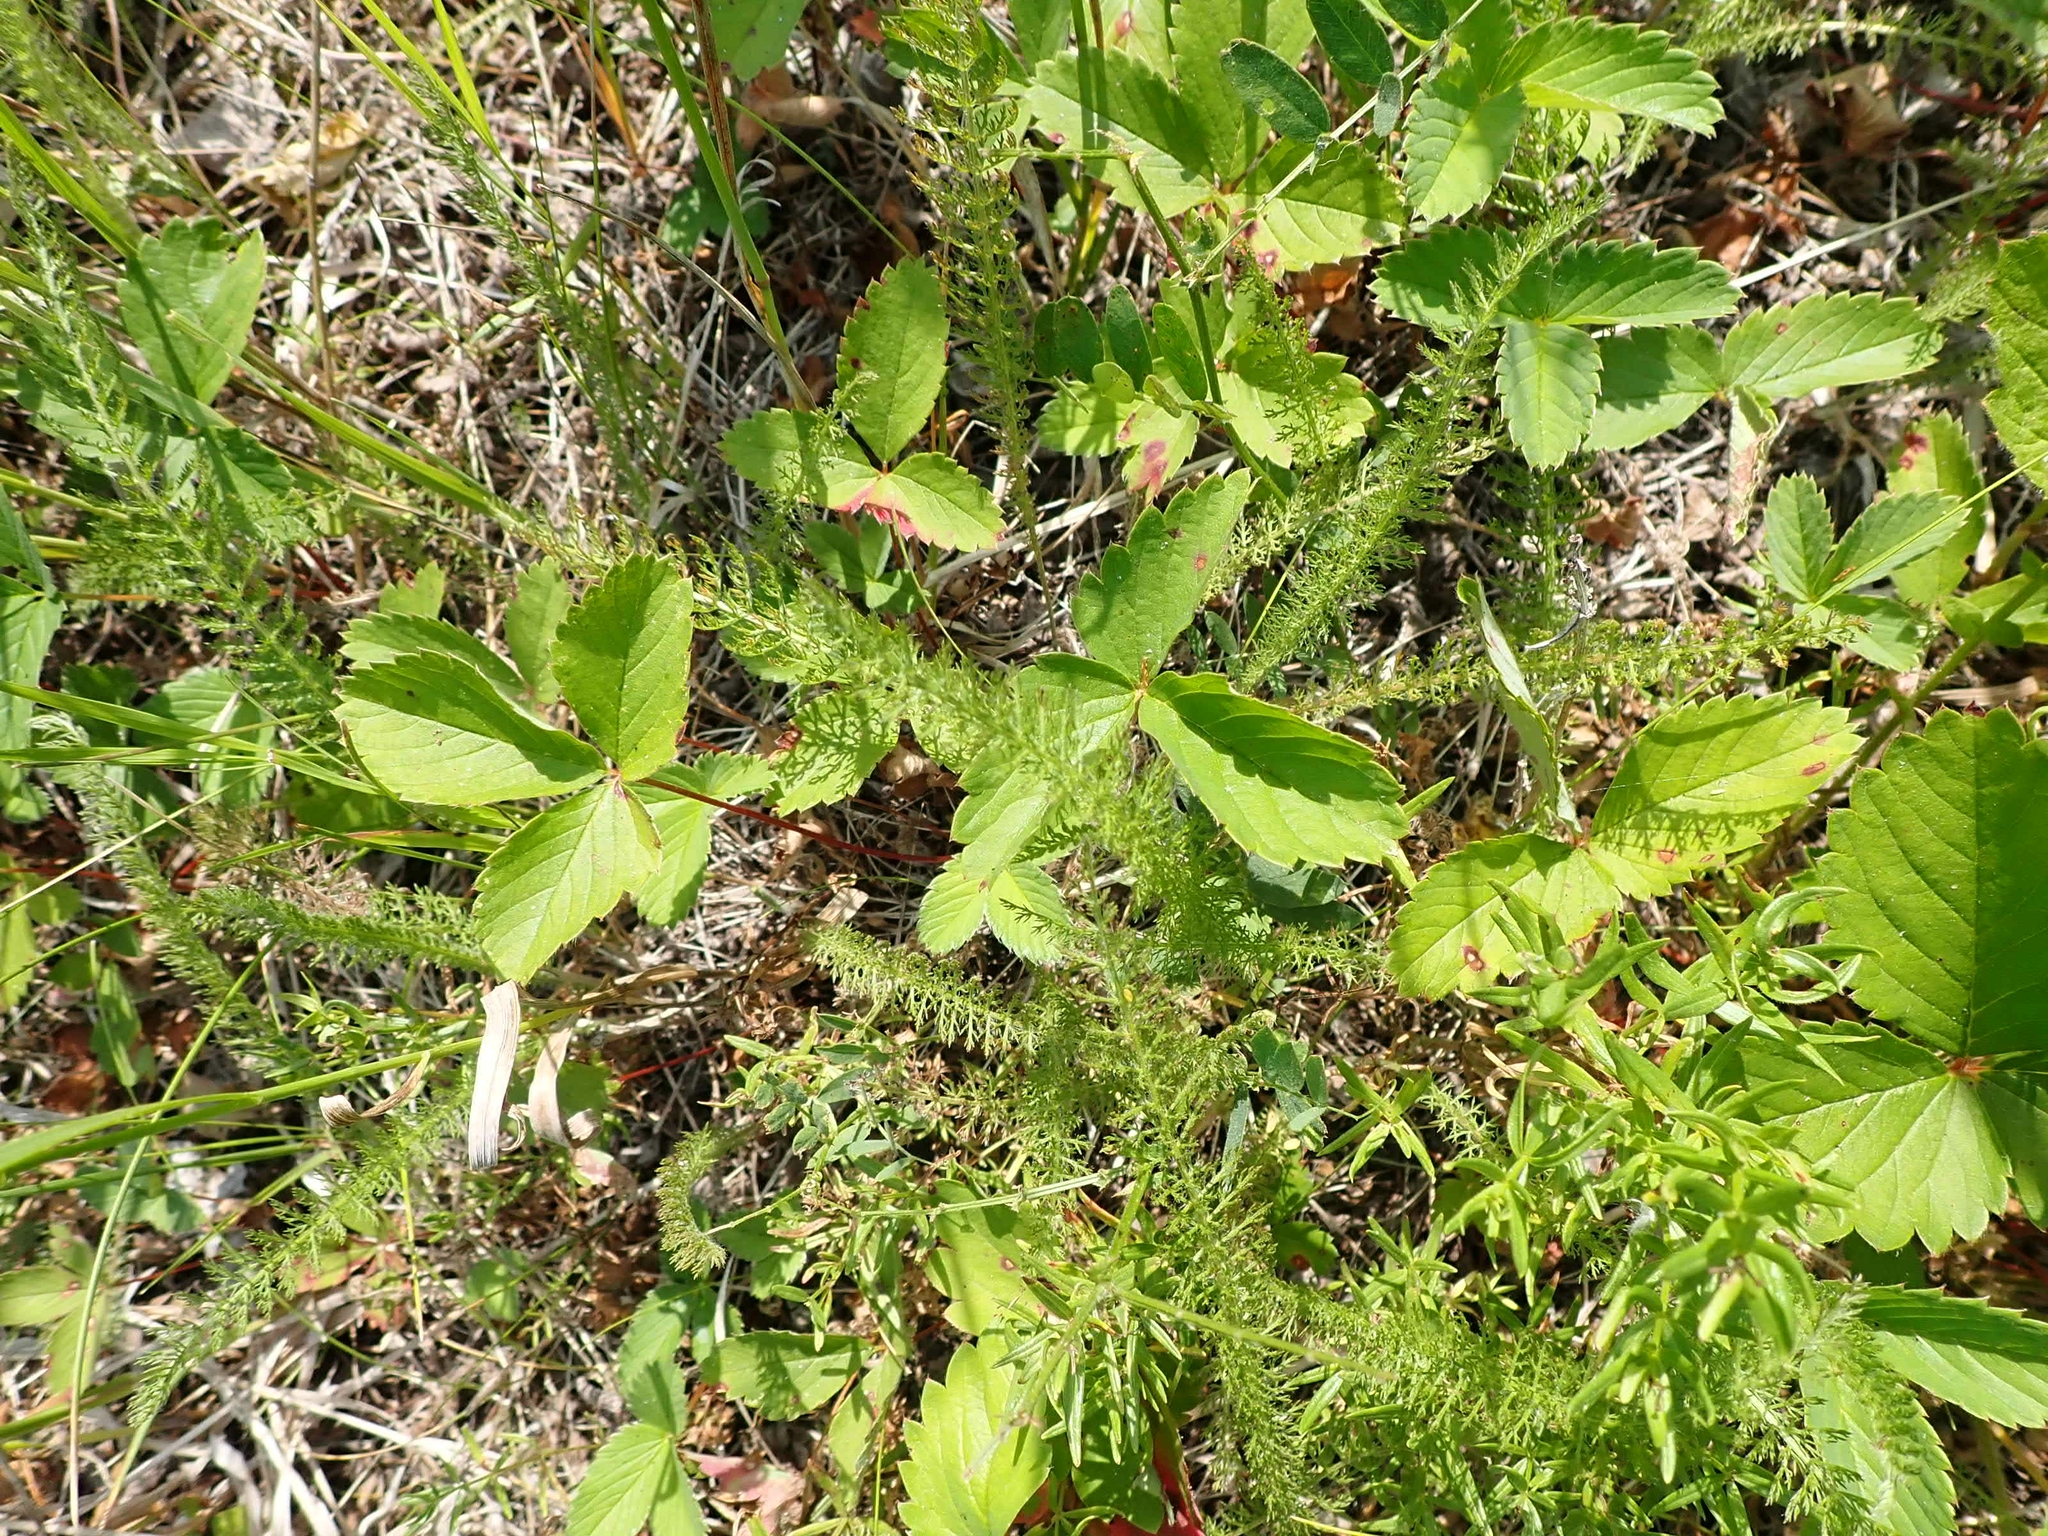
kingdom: Plantae
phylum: Tracheophyta
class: Magnoliopsida
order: Asterales
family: Asteraceae
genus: Achillea
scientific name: Achillea millefolium
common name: Yarrow
